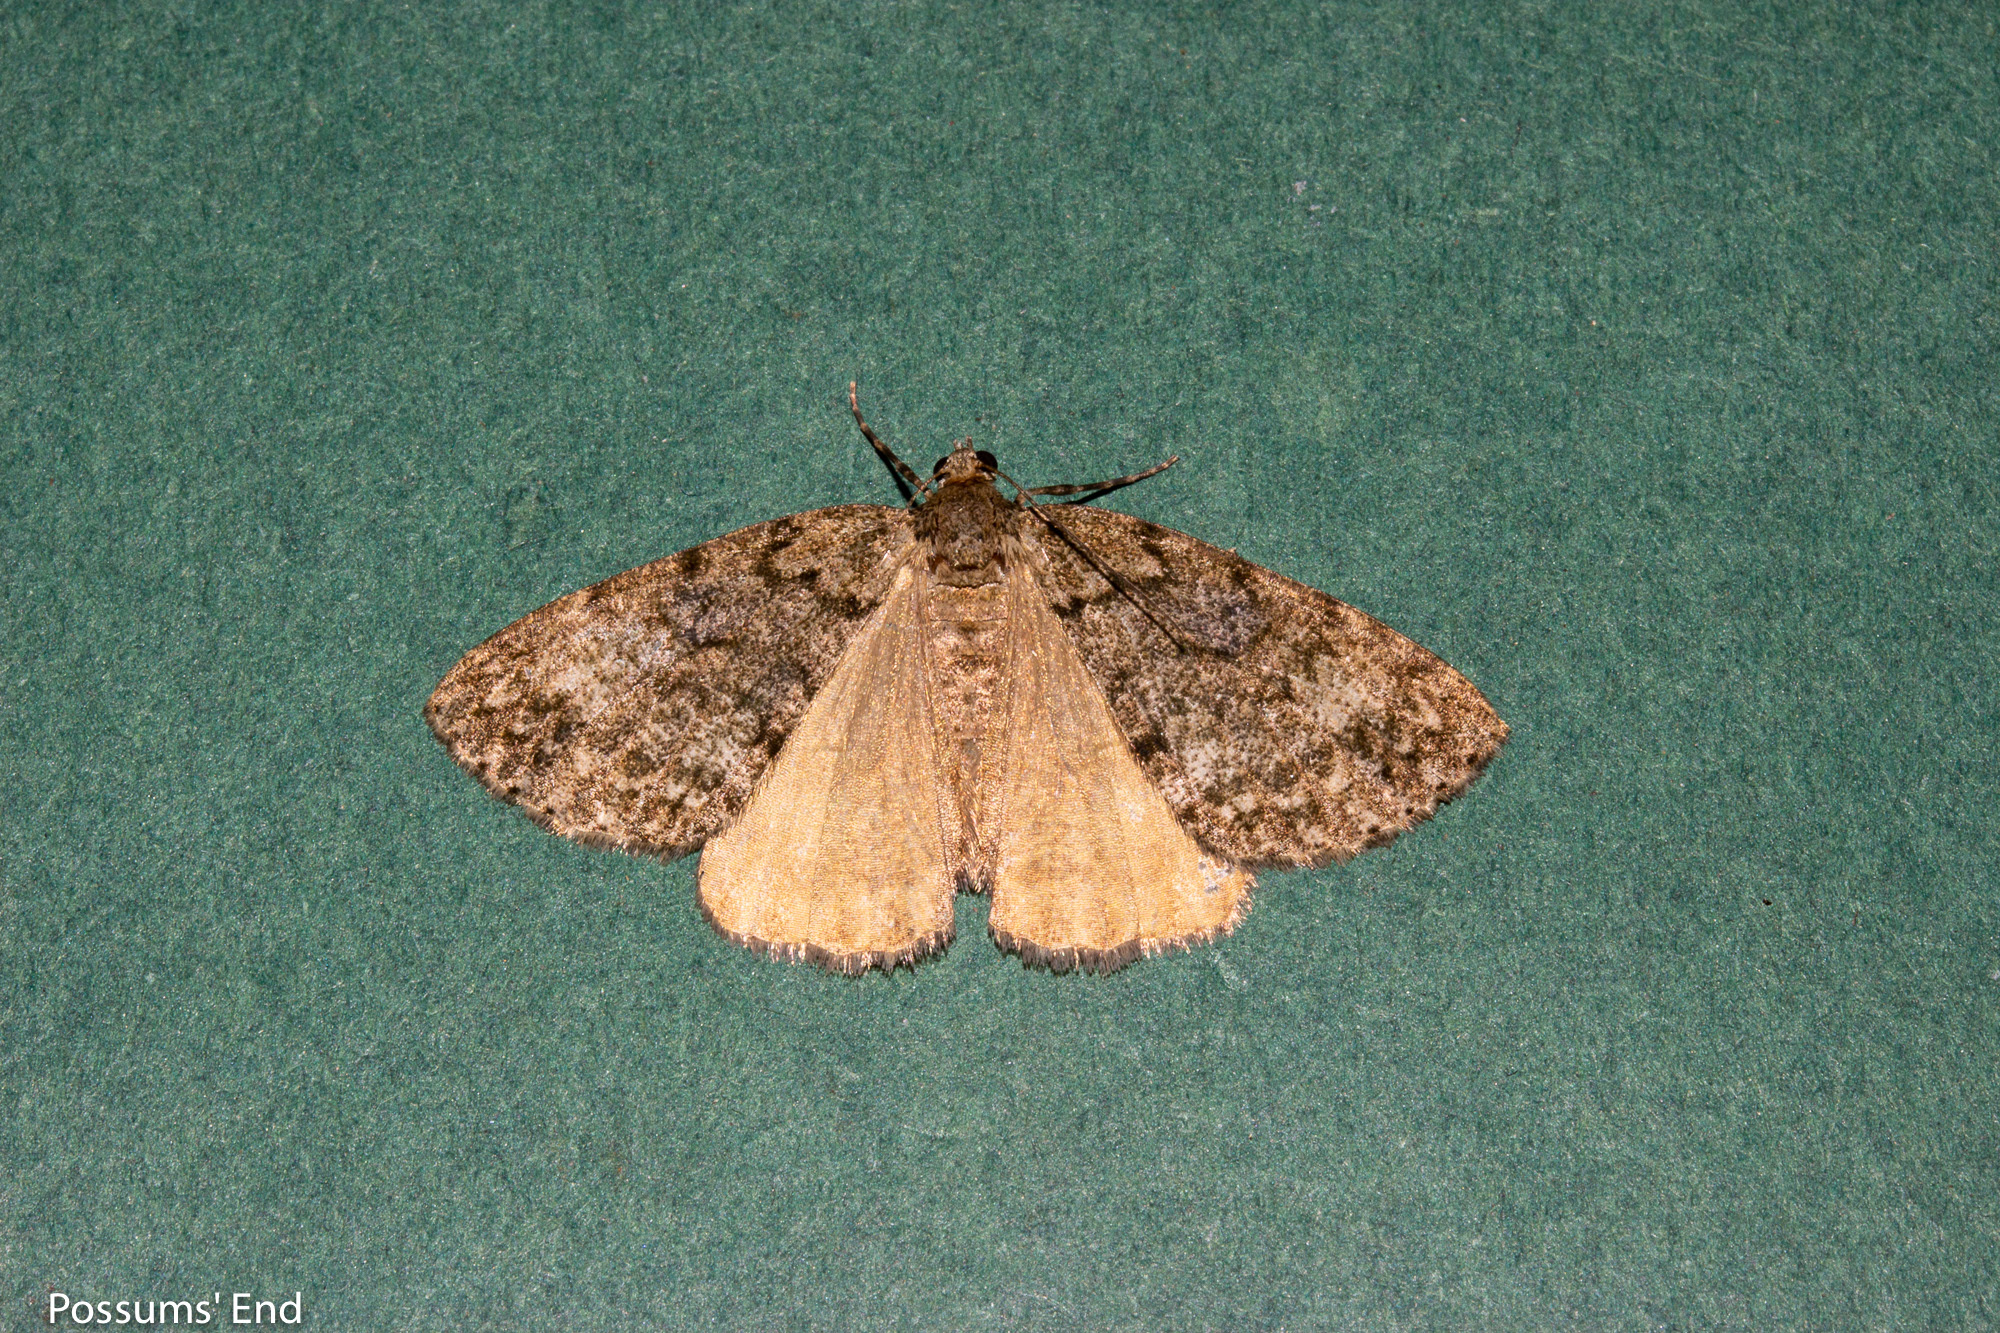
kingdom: Animalia
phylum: Arthropoda
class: Insecta
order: Lepidoptera
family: Geometridae
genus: Pseudocoremia
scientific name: Pseudocoremia indistincta
